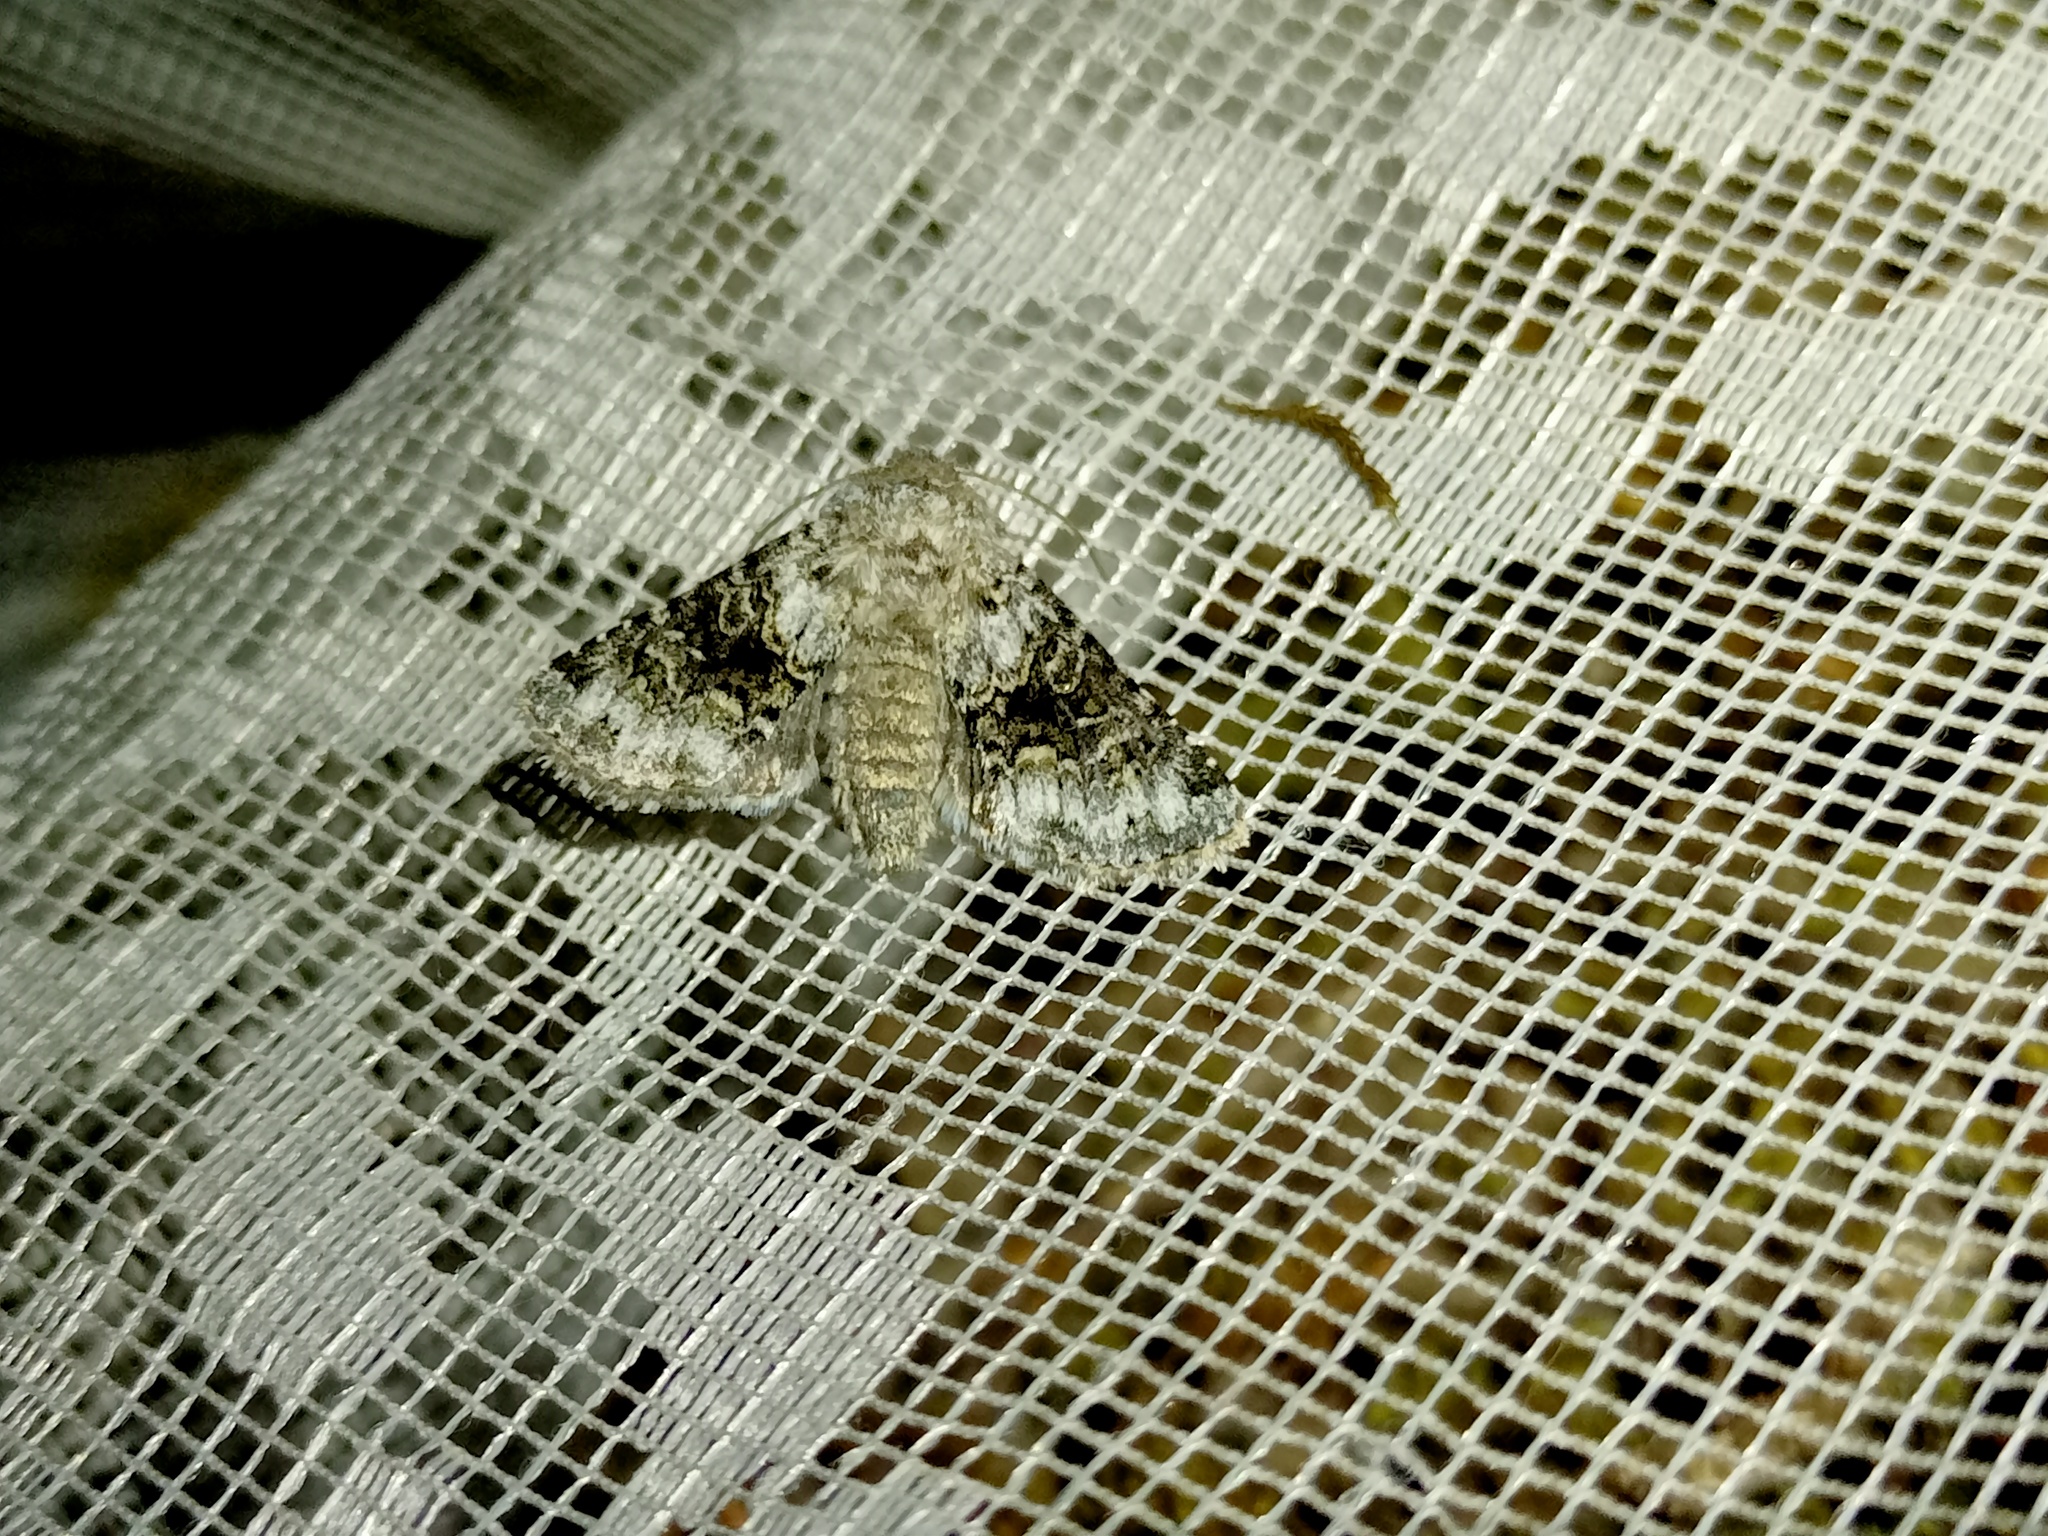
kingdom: Animalia
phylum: Arthropoda
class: Insecta
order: Lepidoptera
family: Noctuidae
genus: Hecatera
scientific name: Hecatera bicolorata
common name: Broad-barred white
